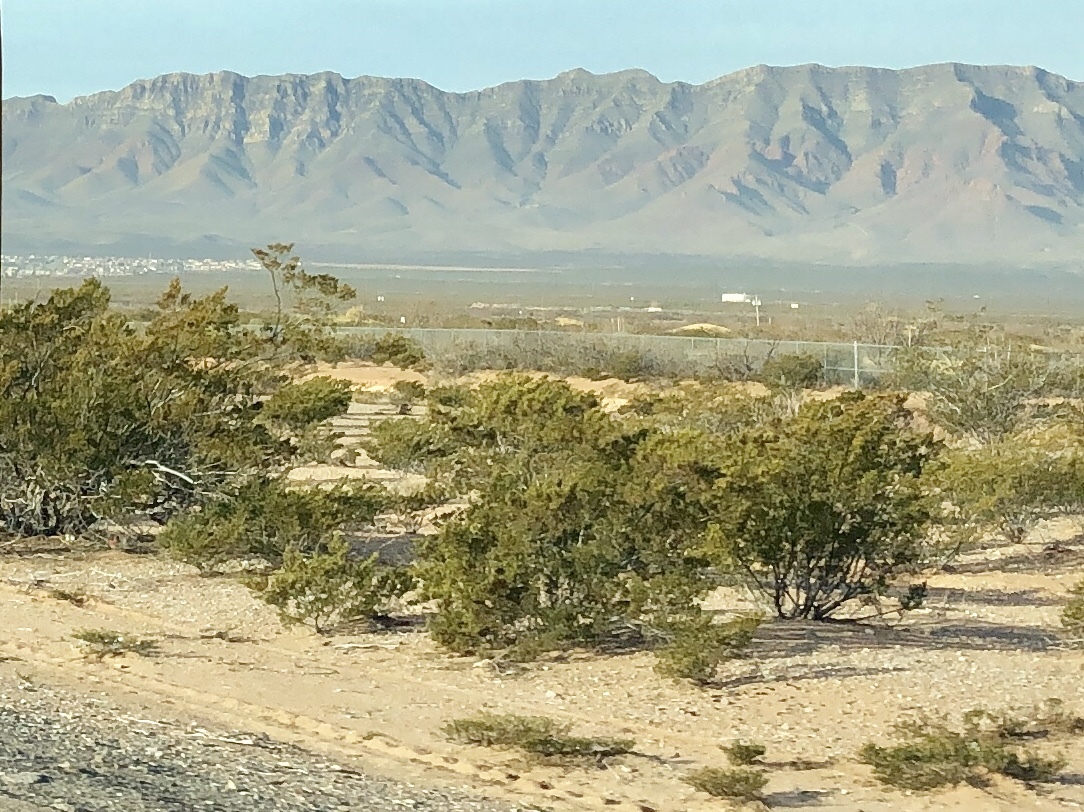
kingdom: Plantae
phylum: Tracheophyta
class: Magnoliopsida
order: Zygophyllales
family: Zygophyllaceae
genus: Larrea
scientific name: Larrea tridentata
